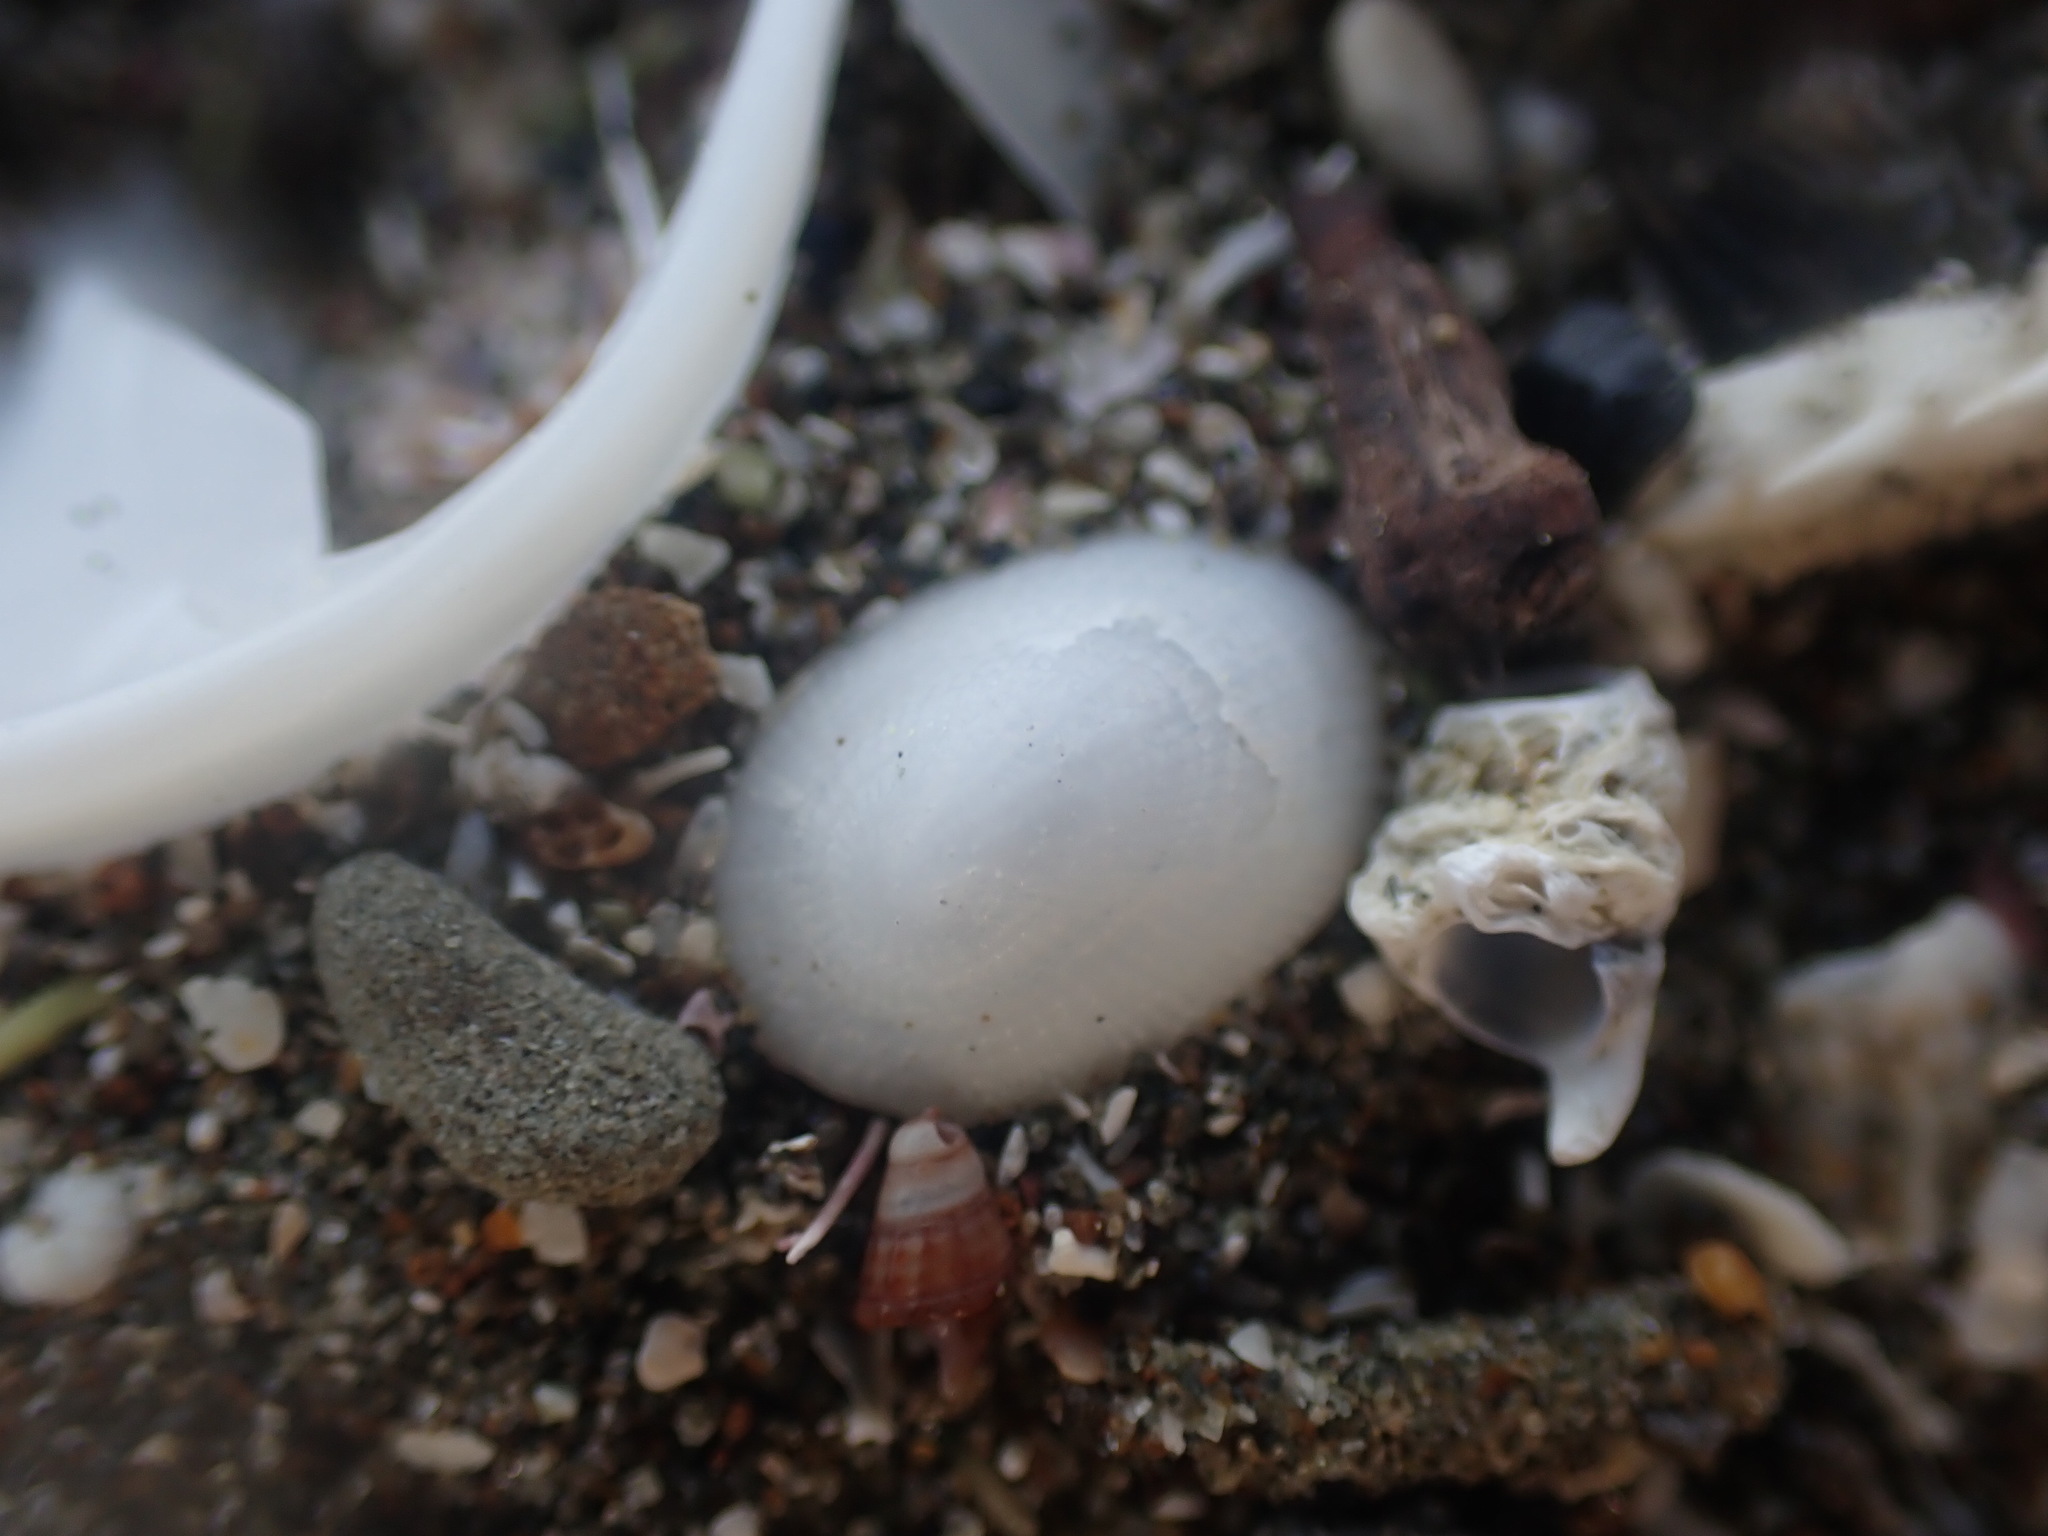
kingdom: Animalia
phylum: Mollusca
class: Gastropoda
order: Lepetellida
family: Fissurellidae
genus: Tugali
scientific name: Tugali suteri
